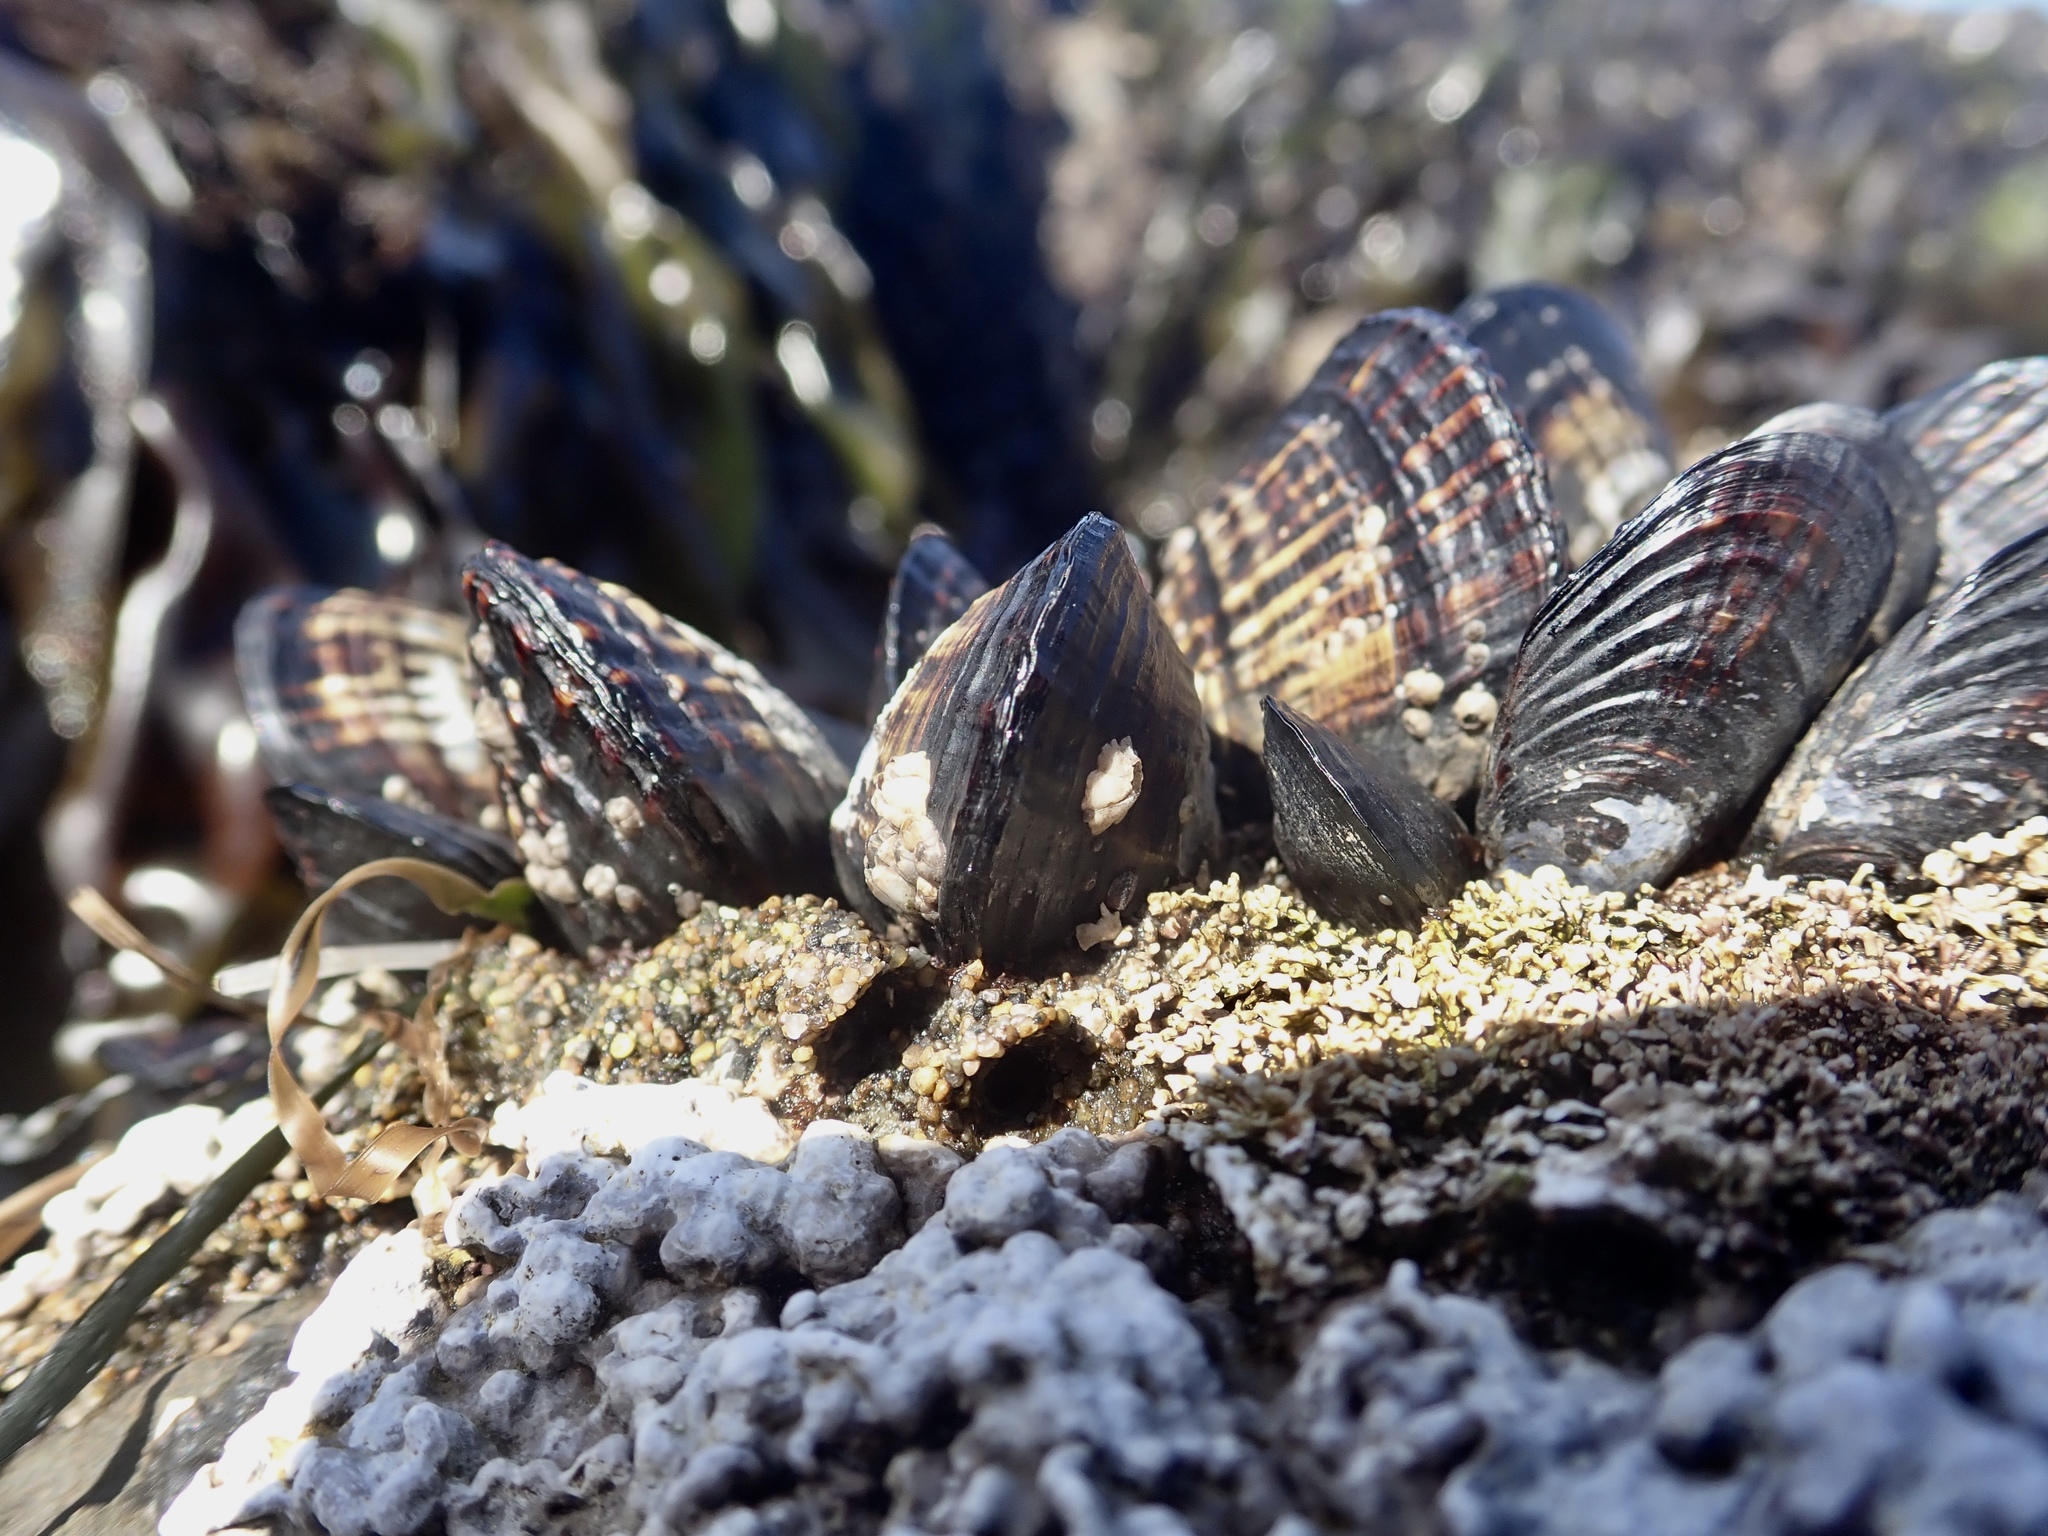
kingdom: Animalia
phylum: Mollusca
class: Bivalvia
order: Mytilida
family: Mytilidae
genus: Mytilus
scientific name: Mytilus californianus
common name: California mussel
